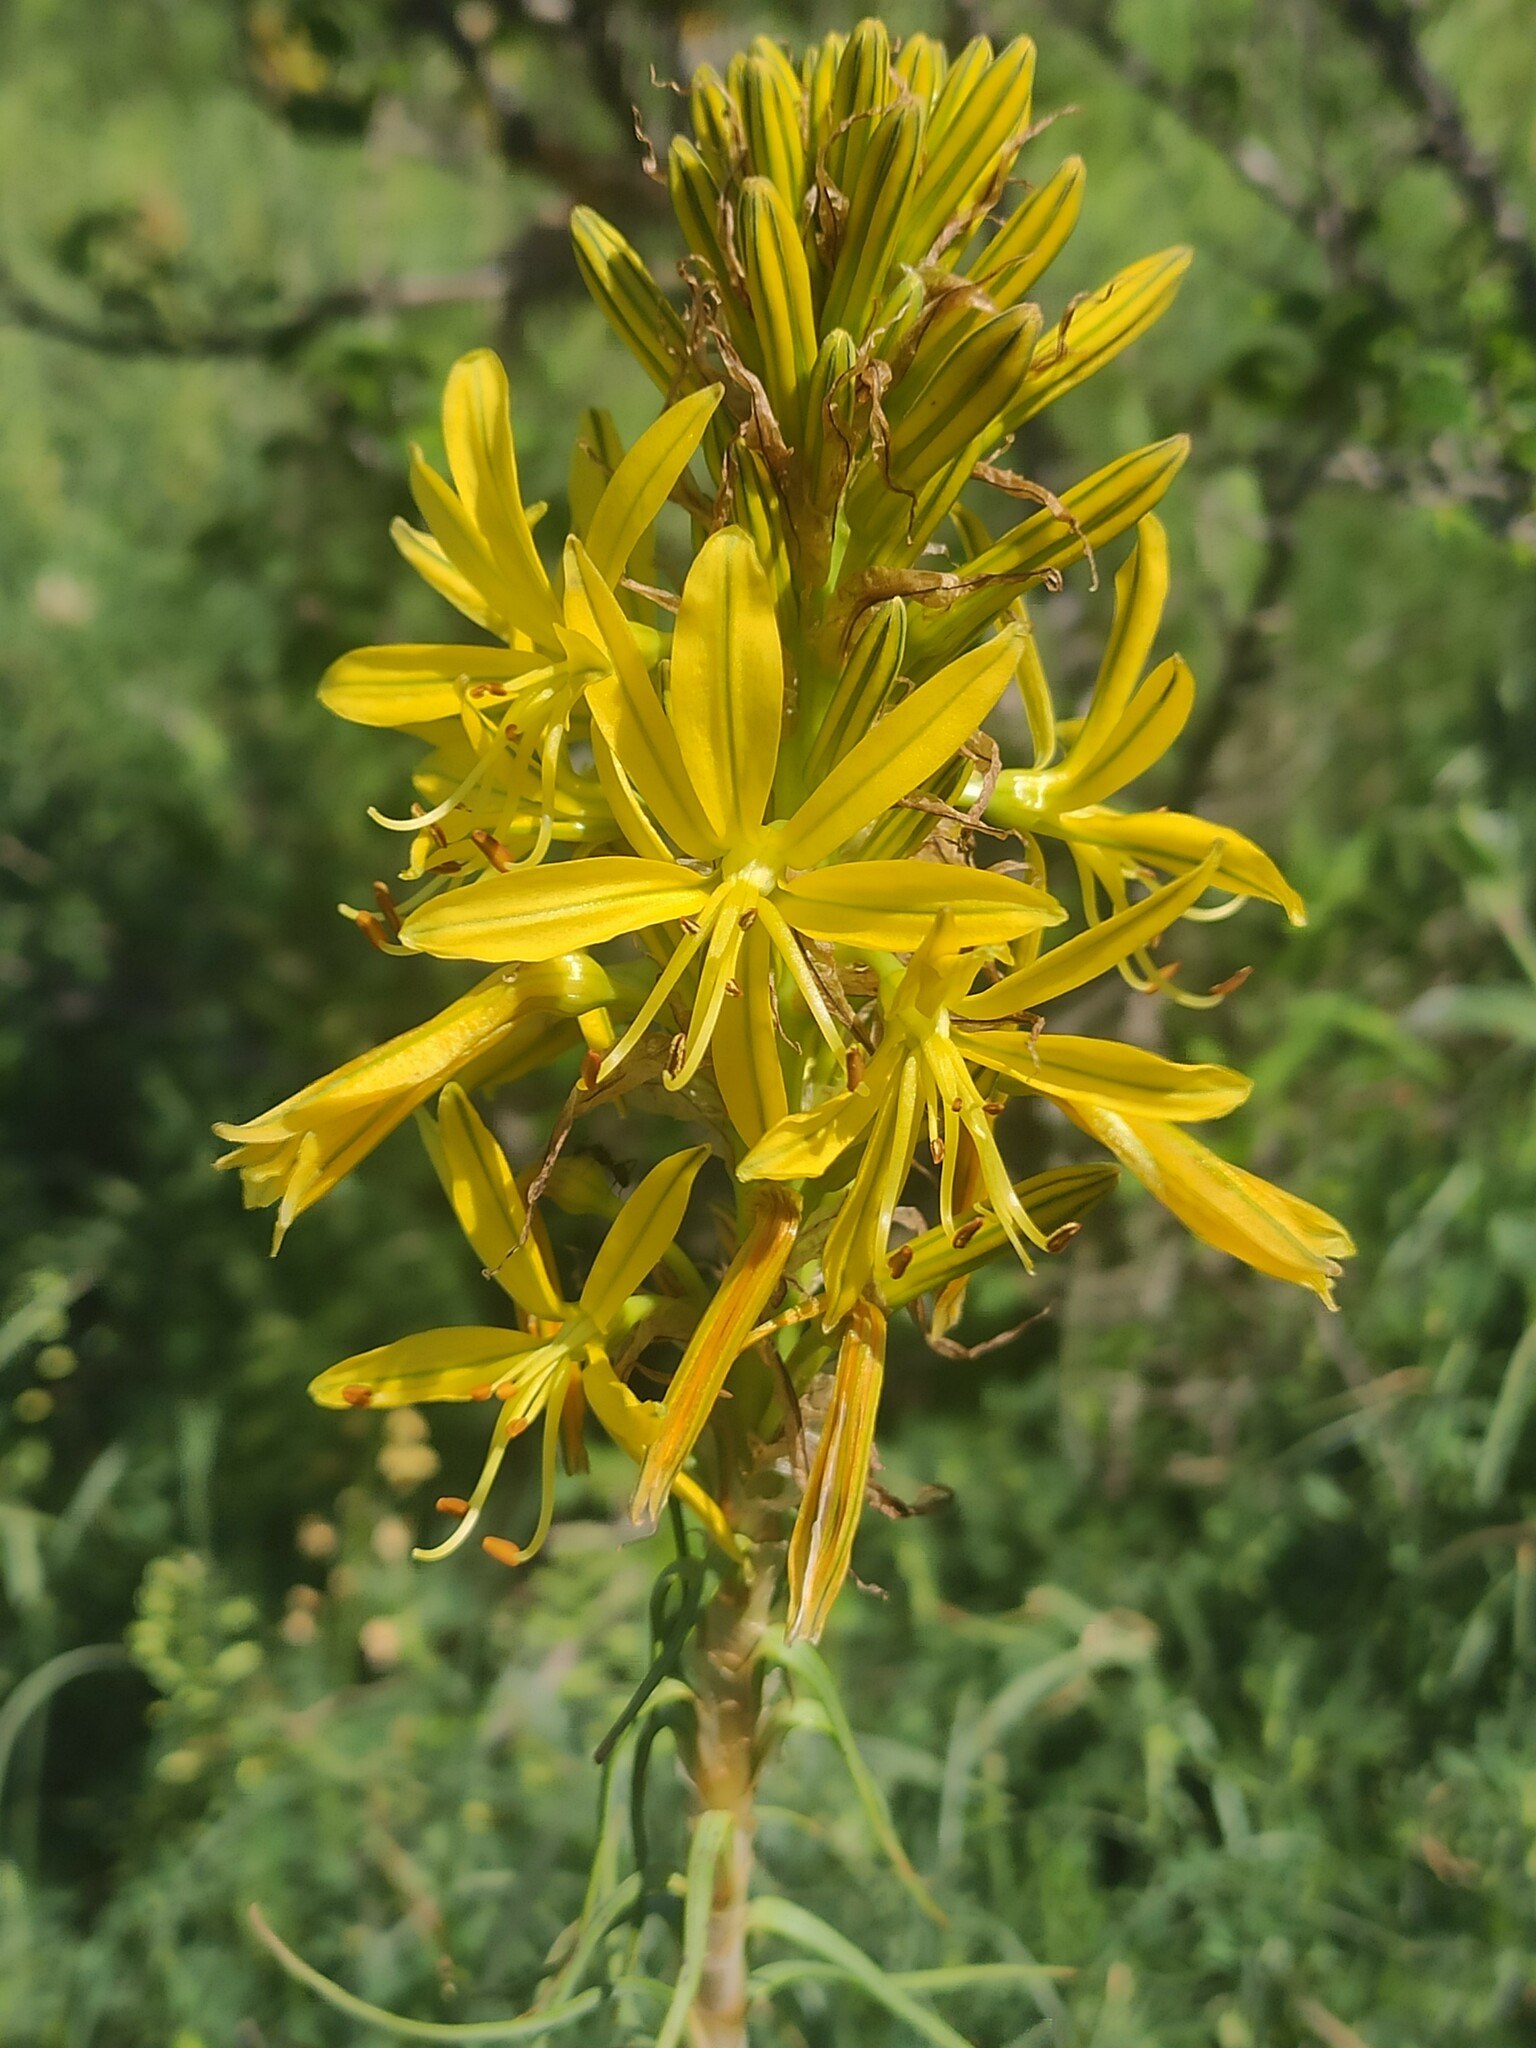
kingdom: Plantae
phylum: Tracheophyta
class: Liliopsida
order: Asparagales
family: Asphodelaceae
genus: Asphodeline
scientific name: Asphodeline lutea
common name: Yellow asphodel
